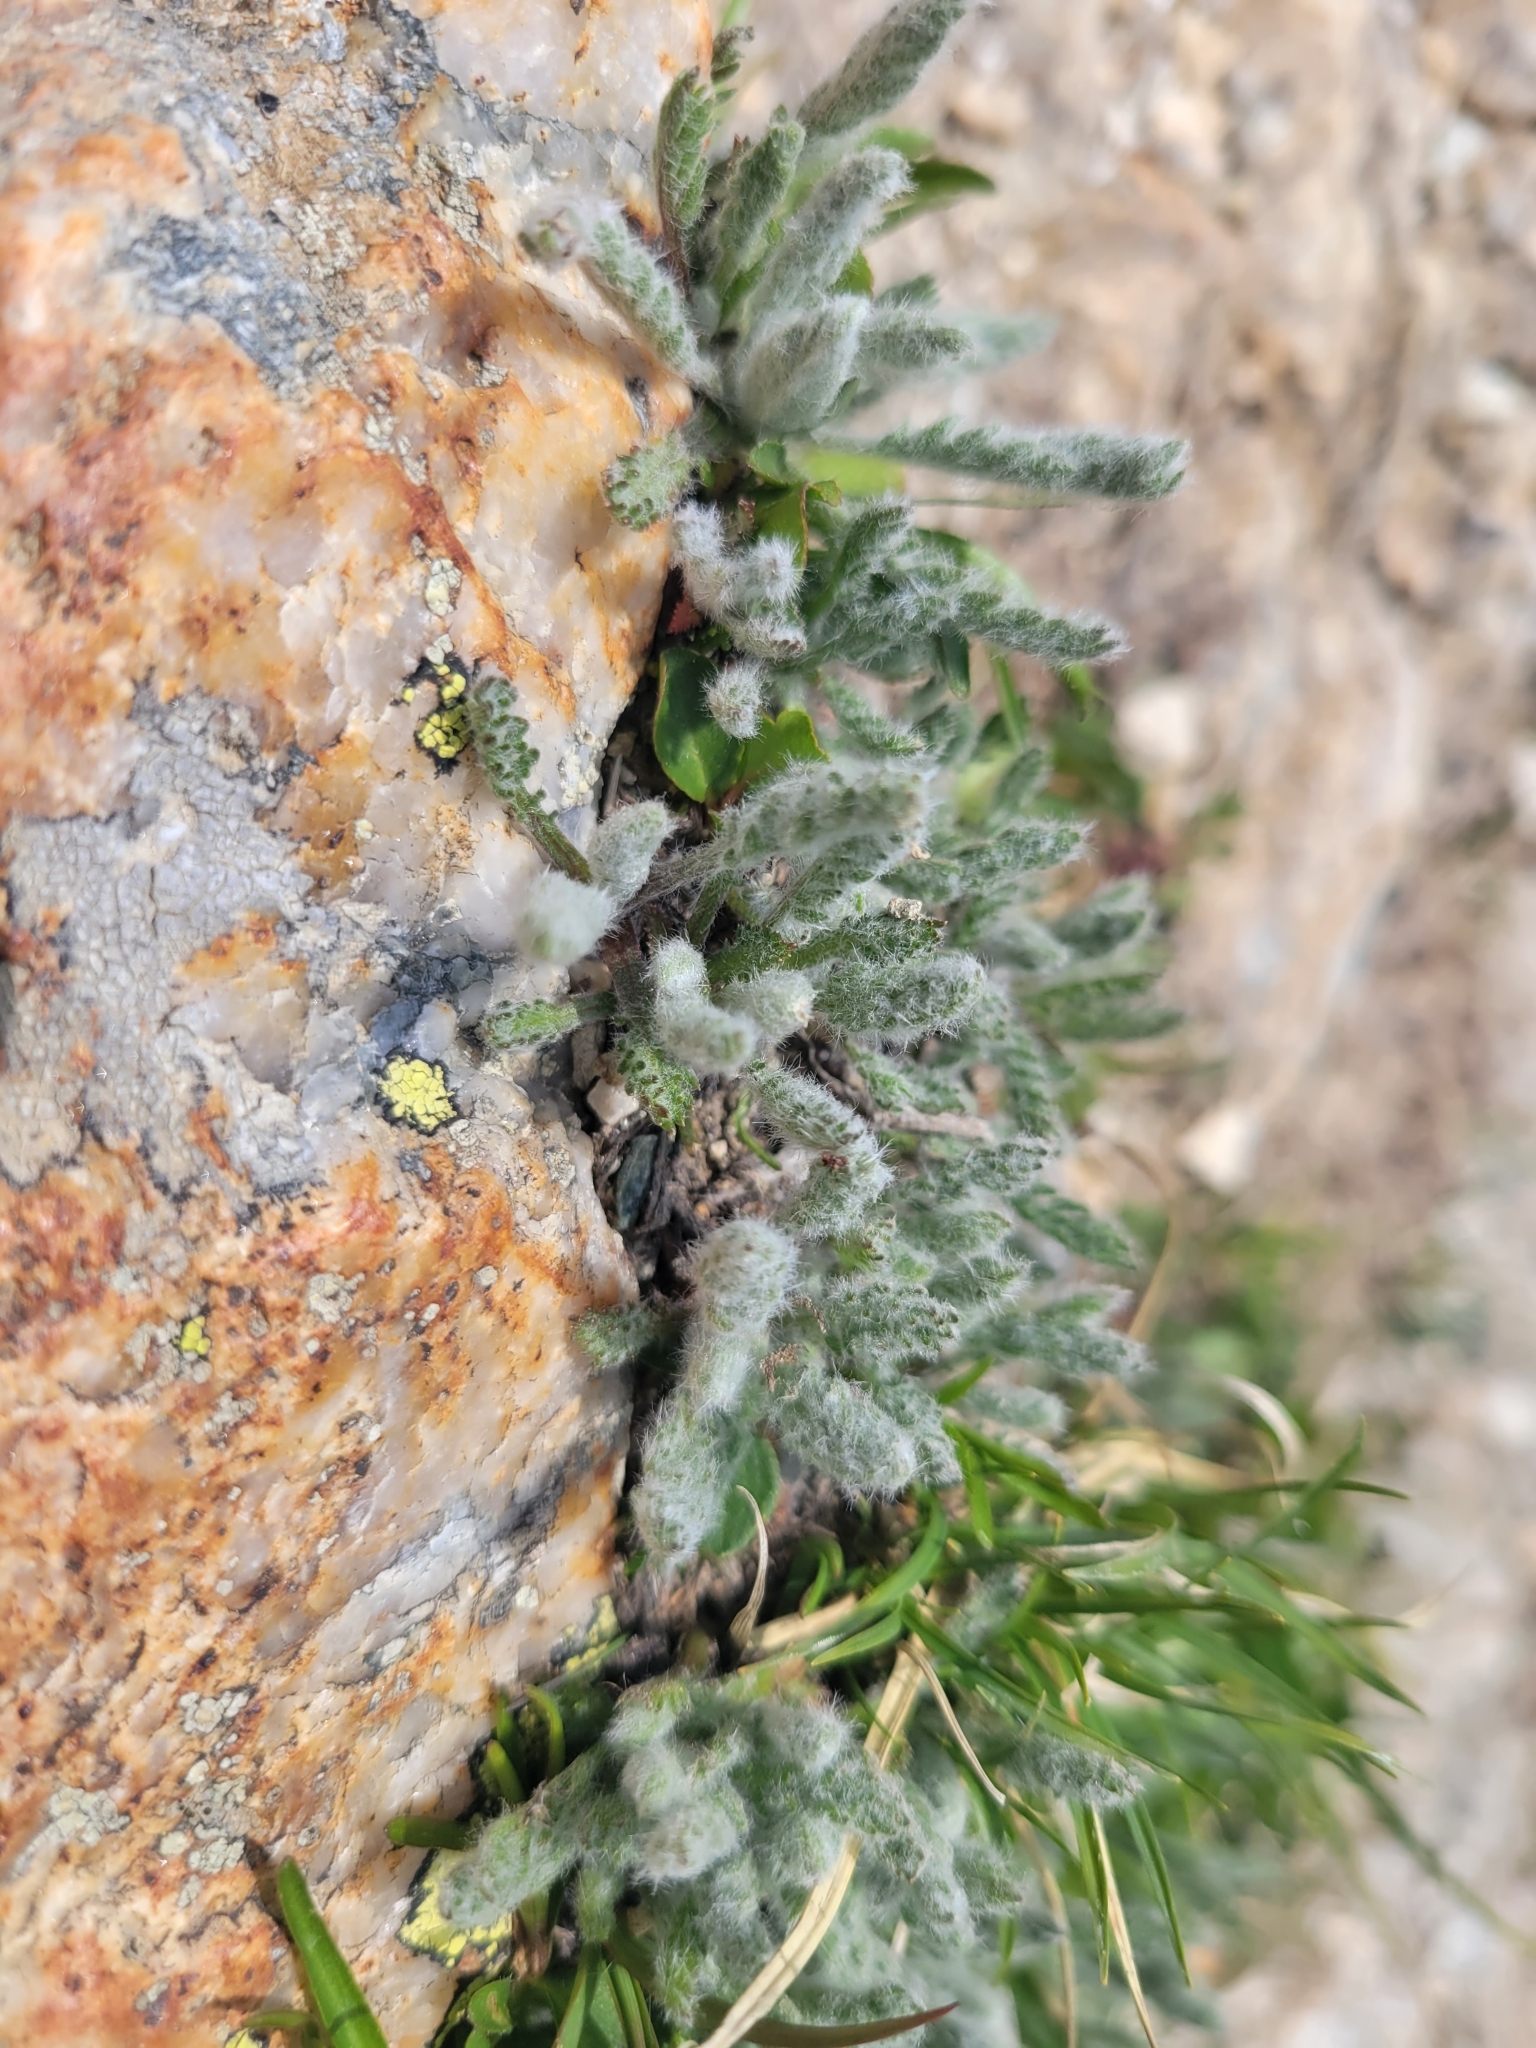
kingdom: Plantae
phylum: Tracheophyta
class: Magnoliopsida
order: Asterales
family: Asteraceae
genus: Achillea
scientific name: Achillea nana
